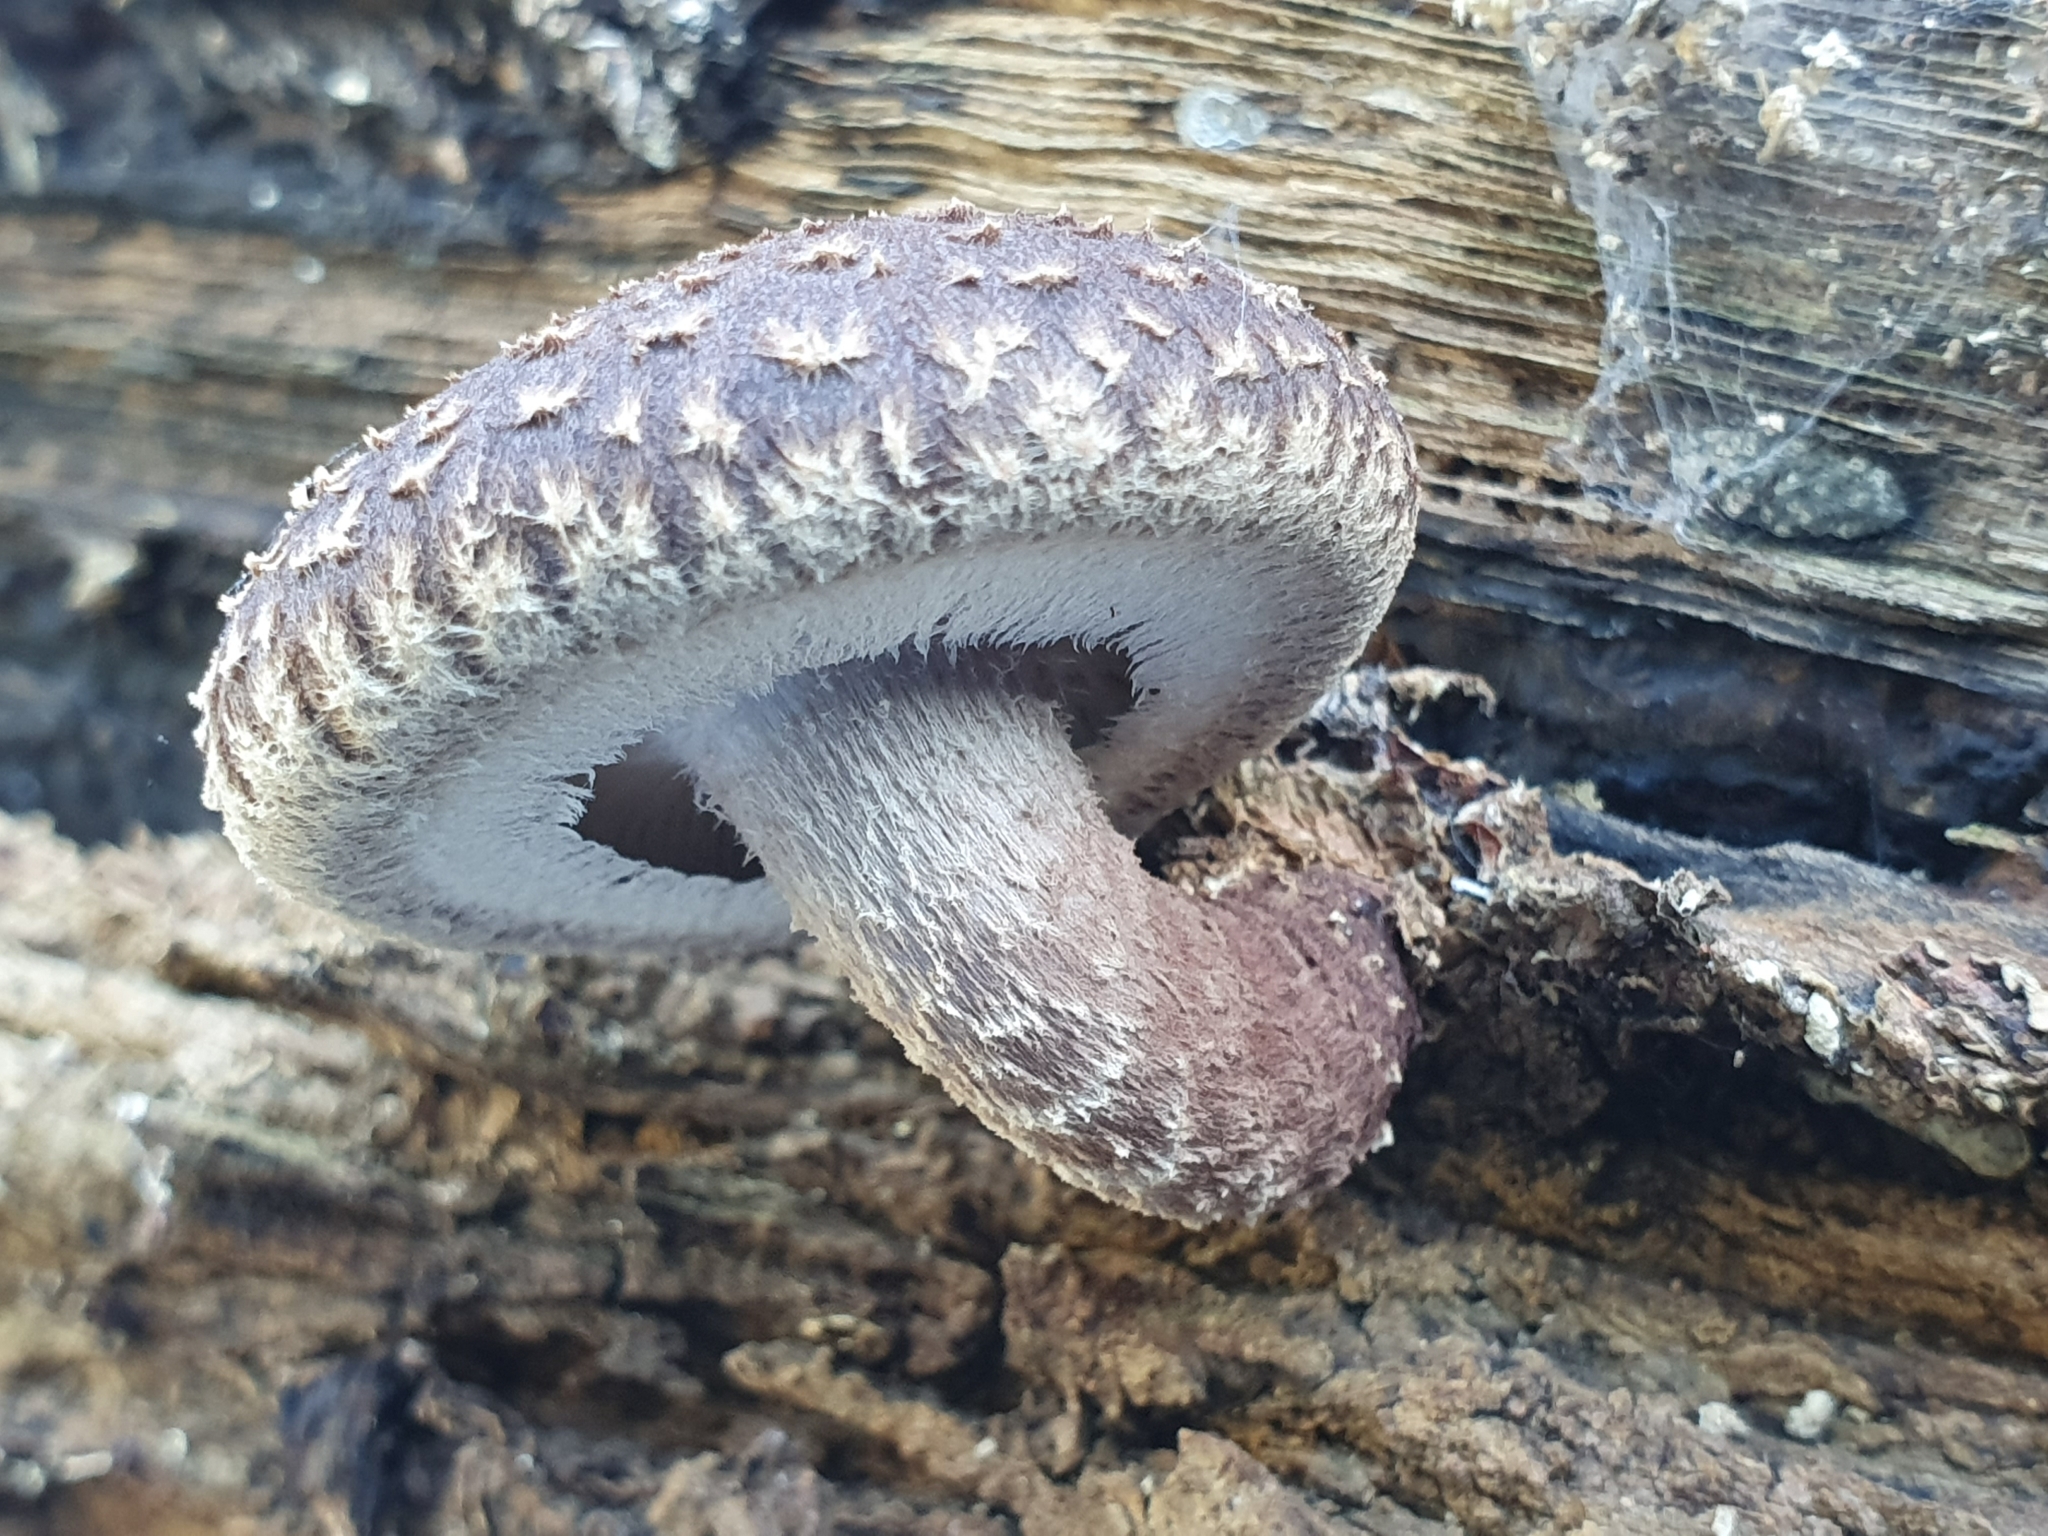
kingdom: Fungi
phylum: Basidiomycota
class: Agaricomycetes
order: Agaricales
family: Omphalotaceae
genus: Lentinula
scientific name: Lentinula novae-zelandiae
